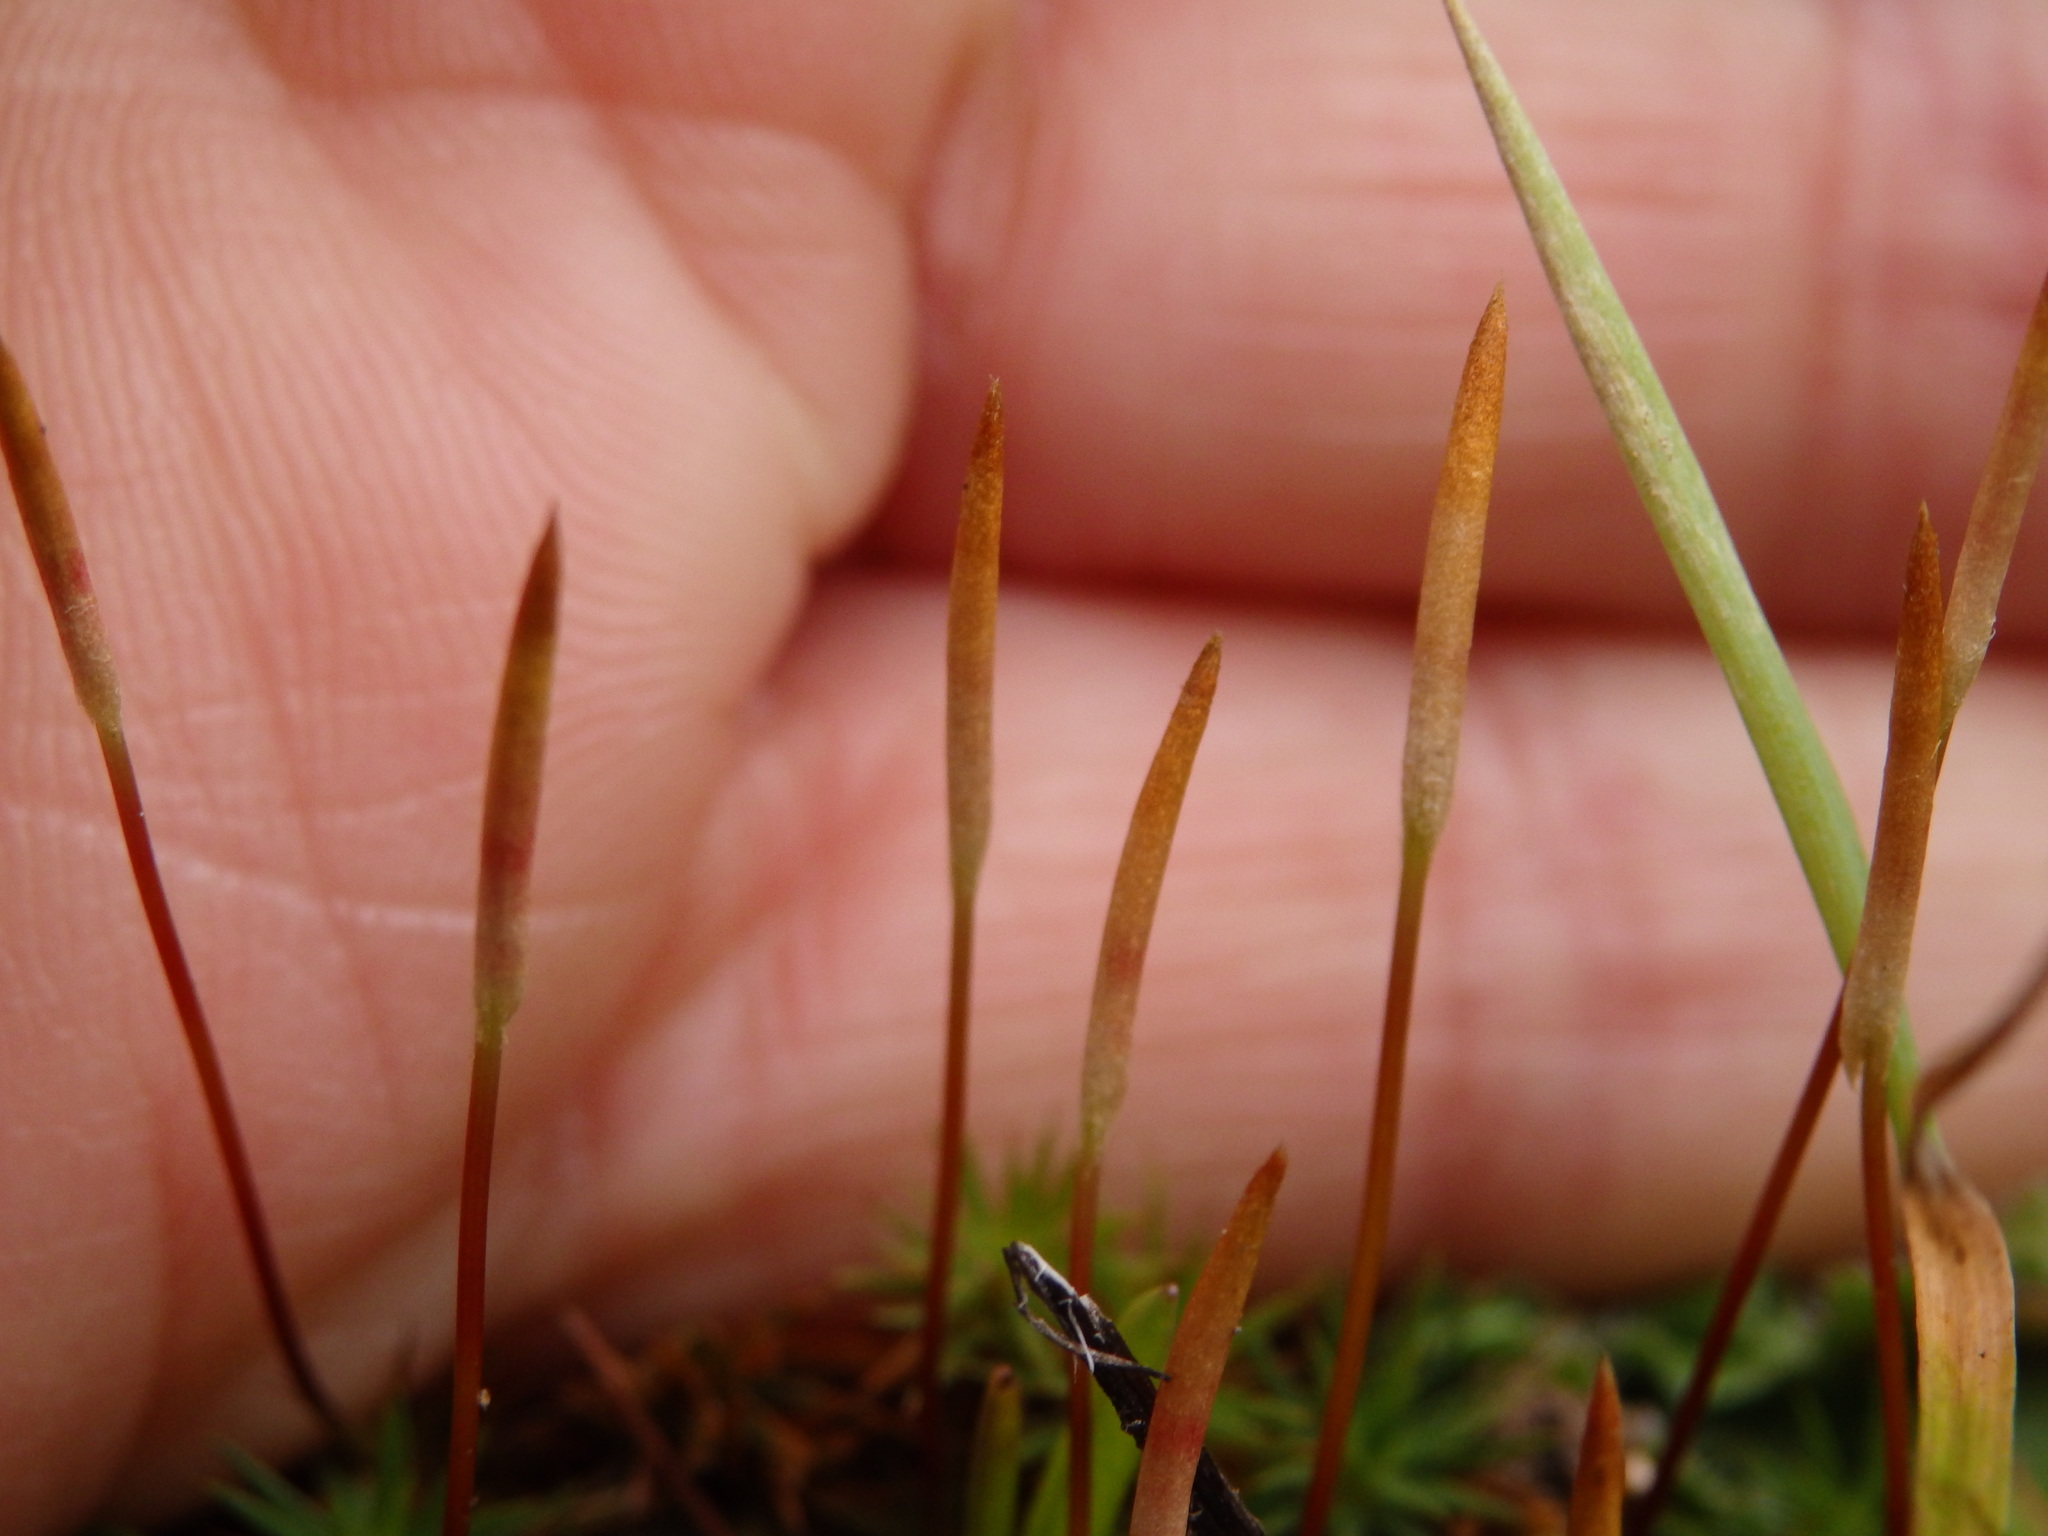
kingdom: Plantae
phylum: Bryophyta
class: Polytrichopsida
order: Polytrichales
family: Polytrichaceae
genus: Polytrichum
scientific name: Polytrichum juniperinum
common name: Juniper haircap moss
